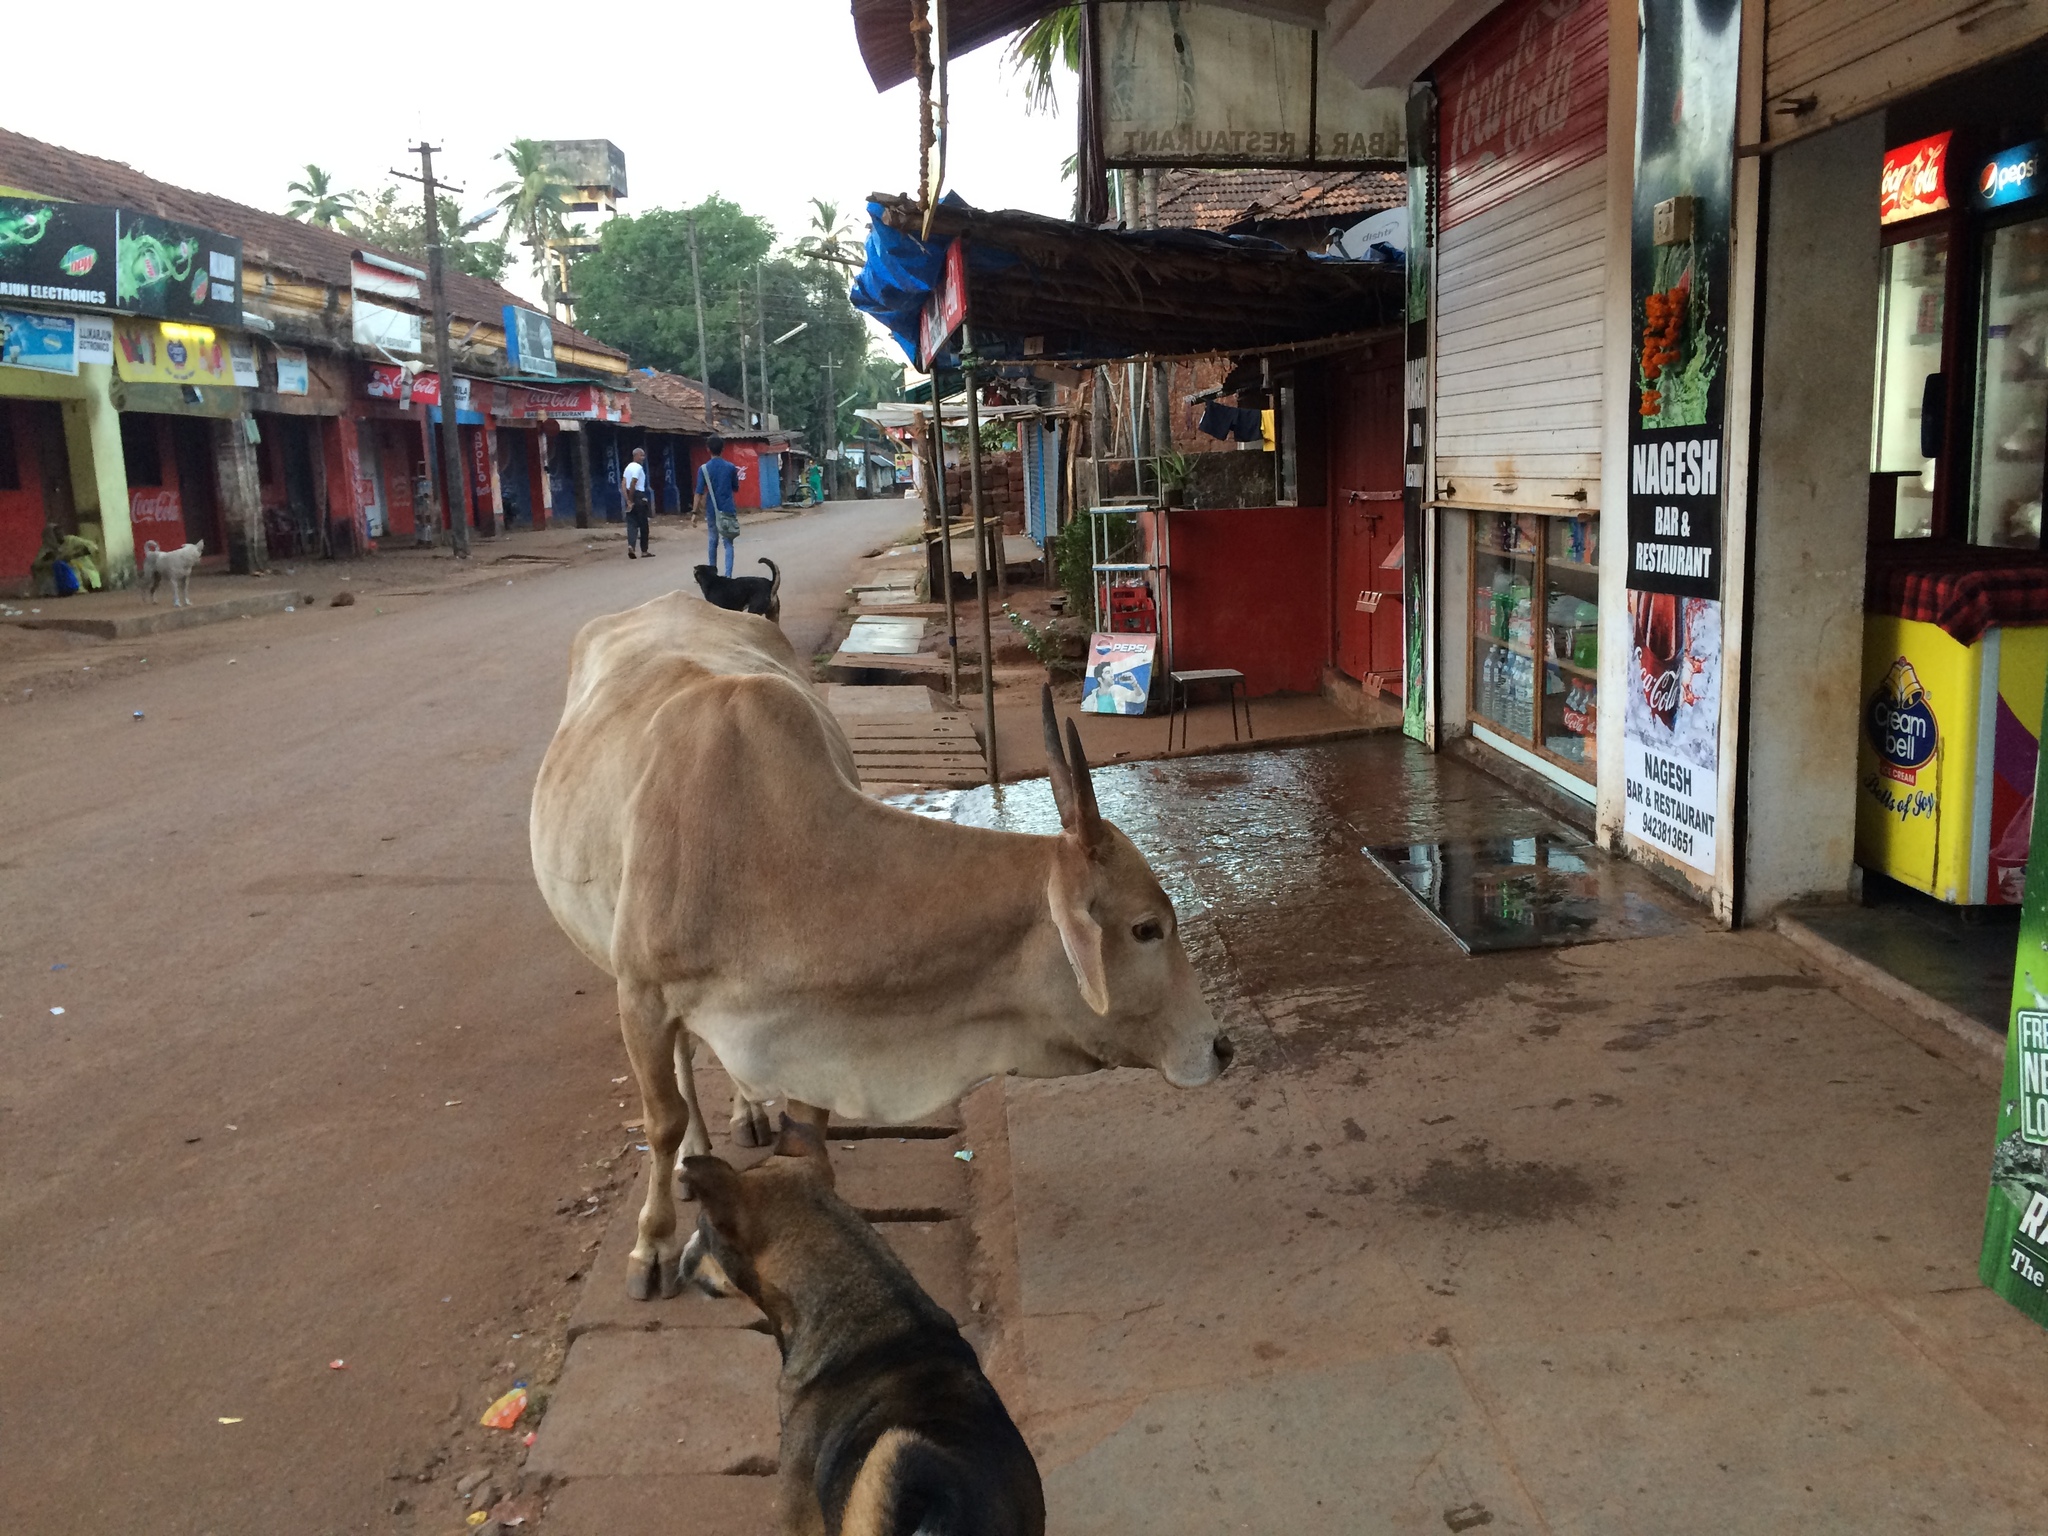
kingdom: Animalia
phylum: Chordata
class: Mammalia
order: Artiodactyla
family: Bovidae
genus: Bos
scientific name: Bos taurus
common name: Domesticated cattle
